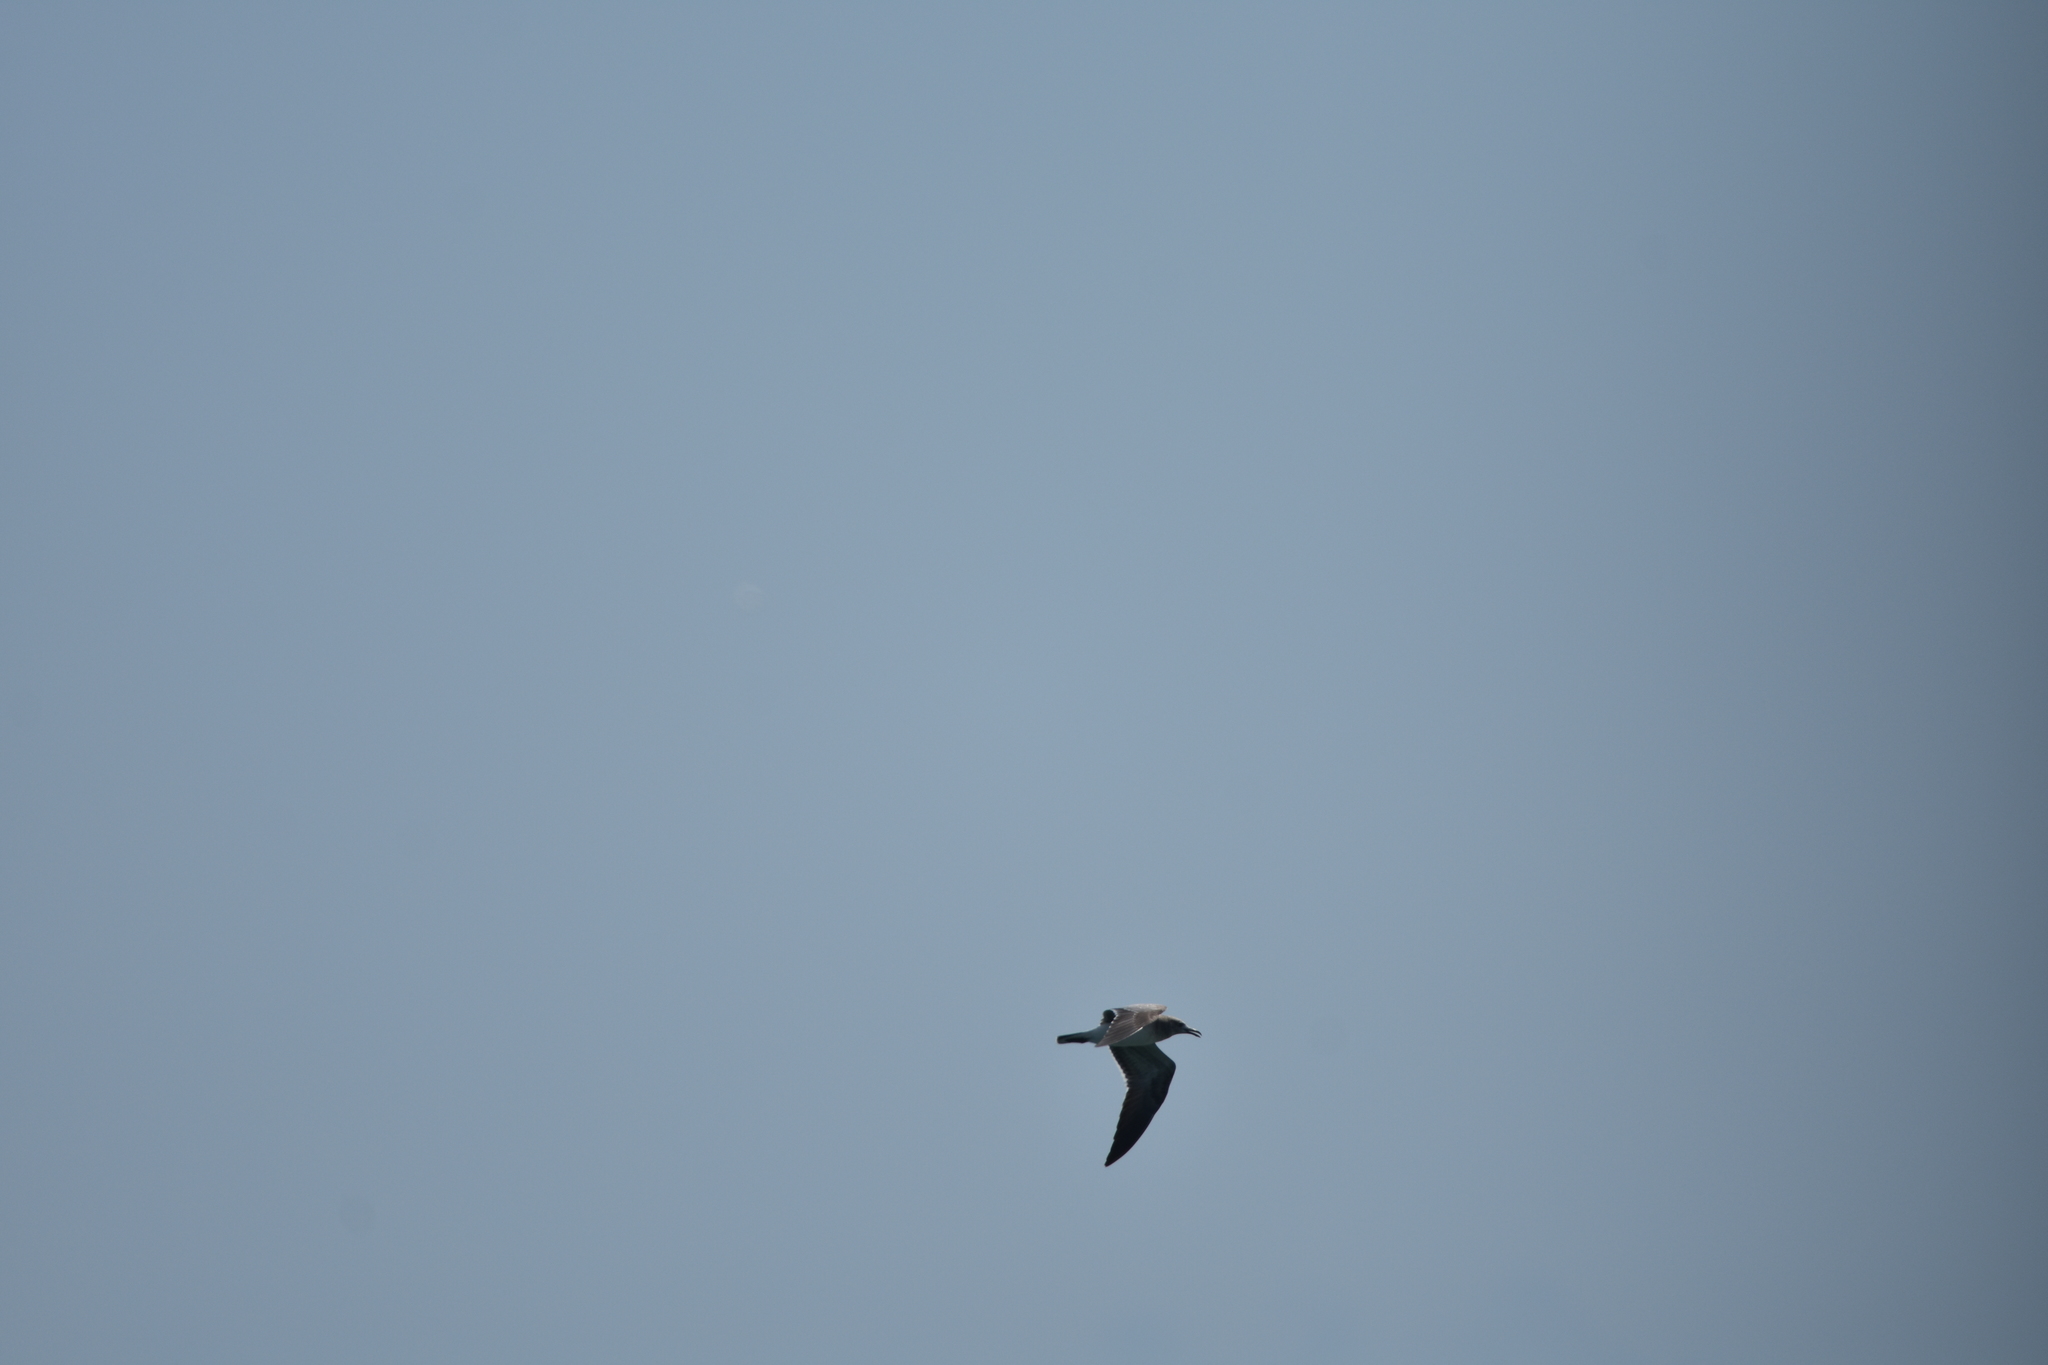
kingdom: Animalia
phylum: Chordata
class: Aves
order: Charadriiformes
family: Laridae
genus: Leucophaeus
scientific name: Leucophaeus atricilla
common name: Laughing gull
